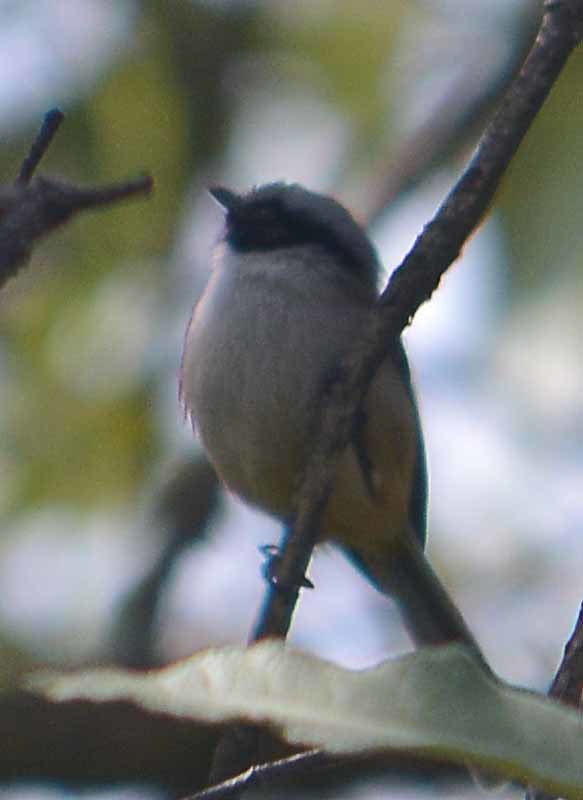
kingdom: Animalia
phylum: Chordata
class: Aves
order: Passeriformes
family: Aegithalidae
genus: Psaltriparus
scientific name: Psaltriparus minimus
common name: American bushtit
